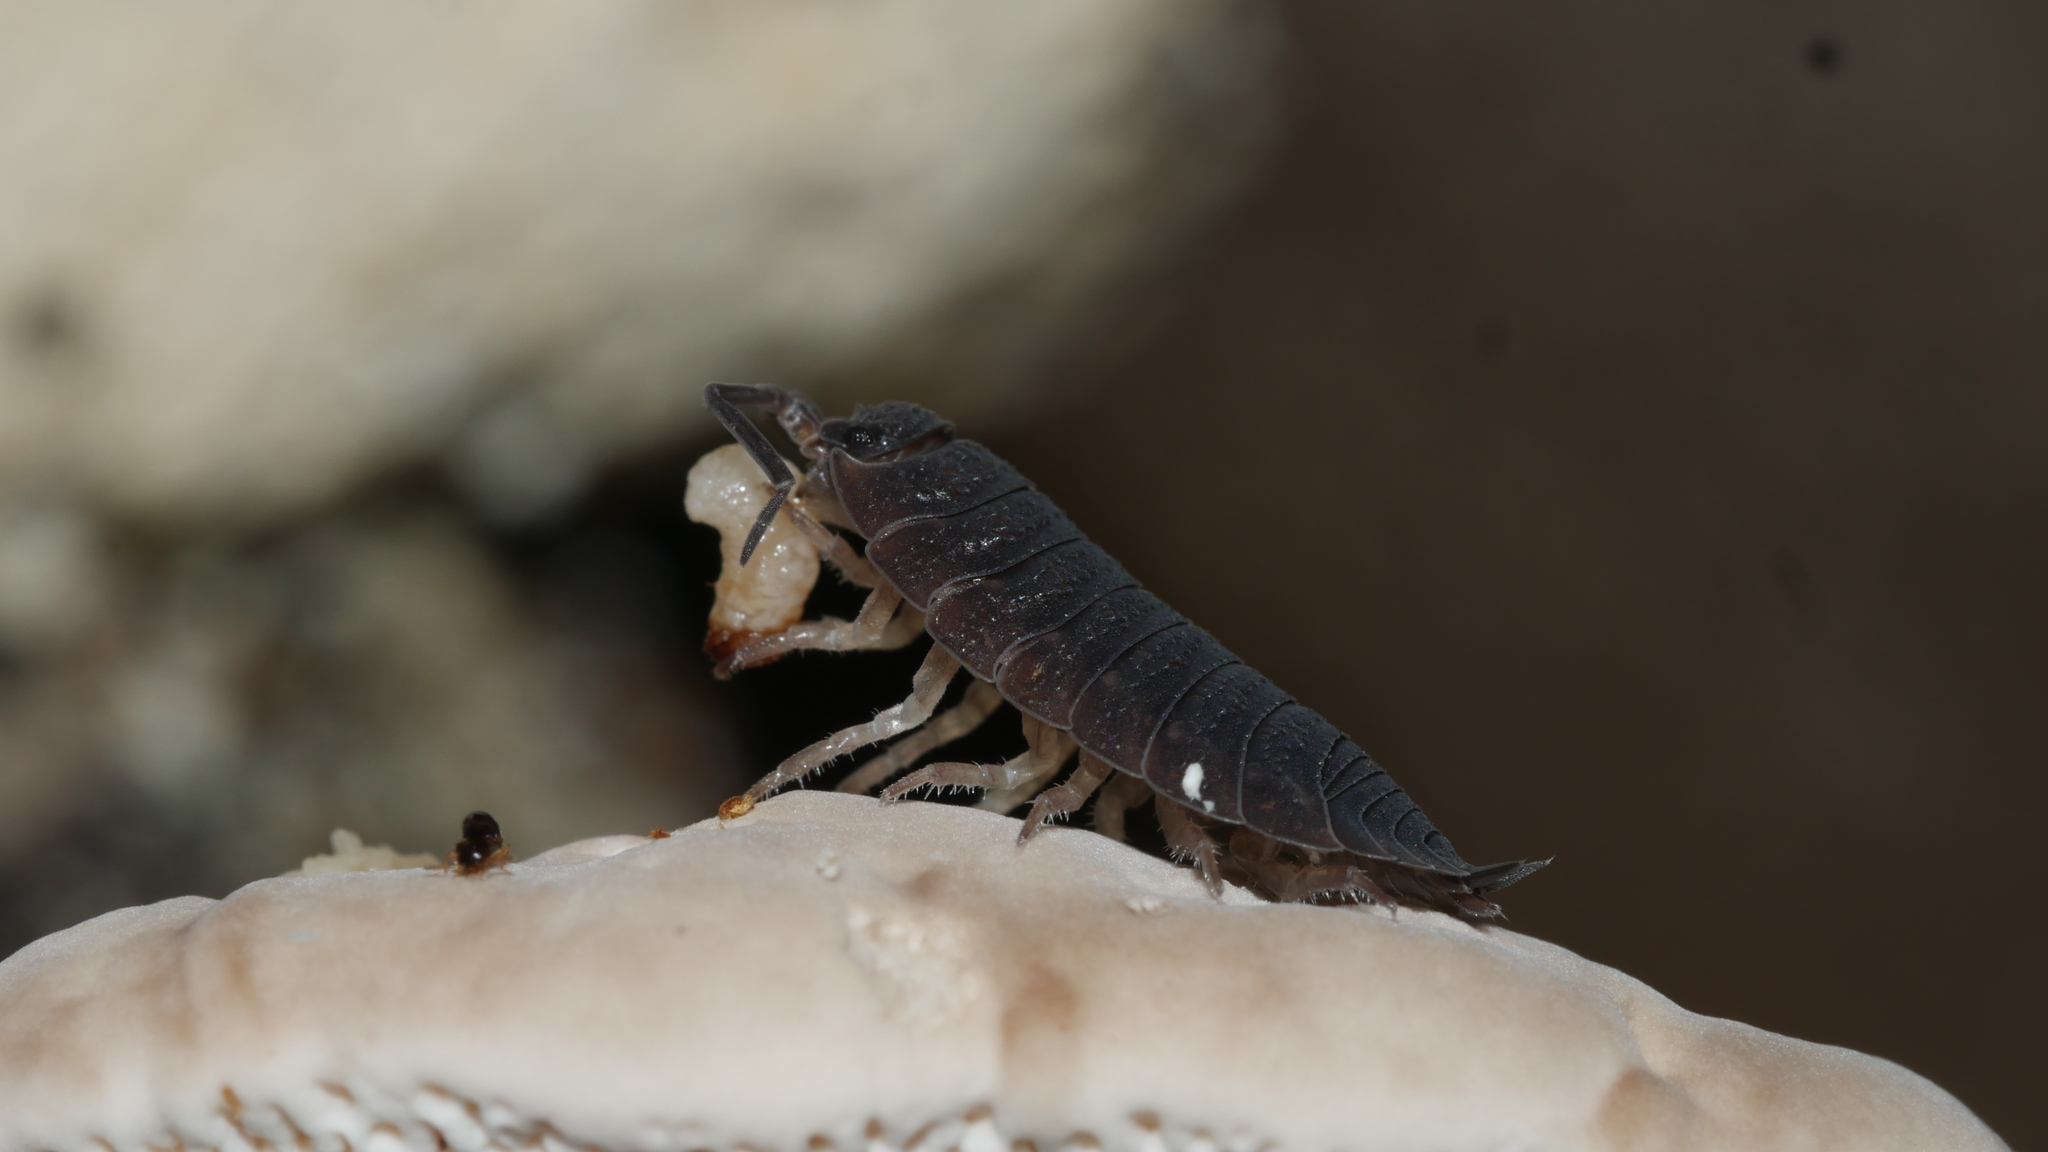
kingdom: Animalia
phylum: Arthropoda
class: Malacostraca
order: Isopoda
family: Porcellionidae
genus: Porcellio
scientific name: Porcellio scaber
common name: Common rough woodlouse
